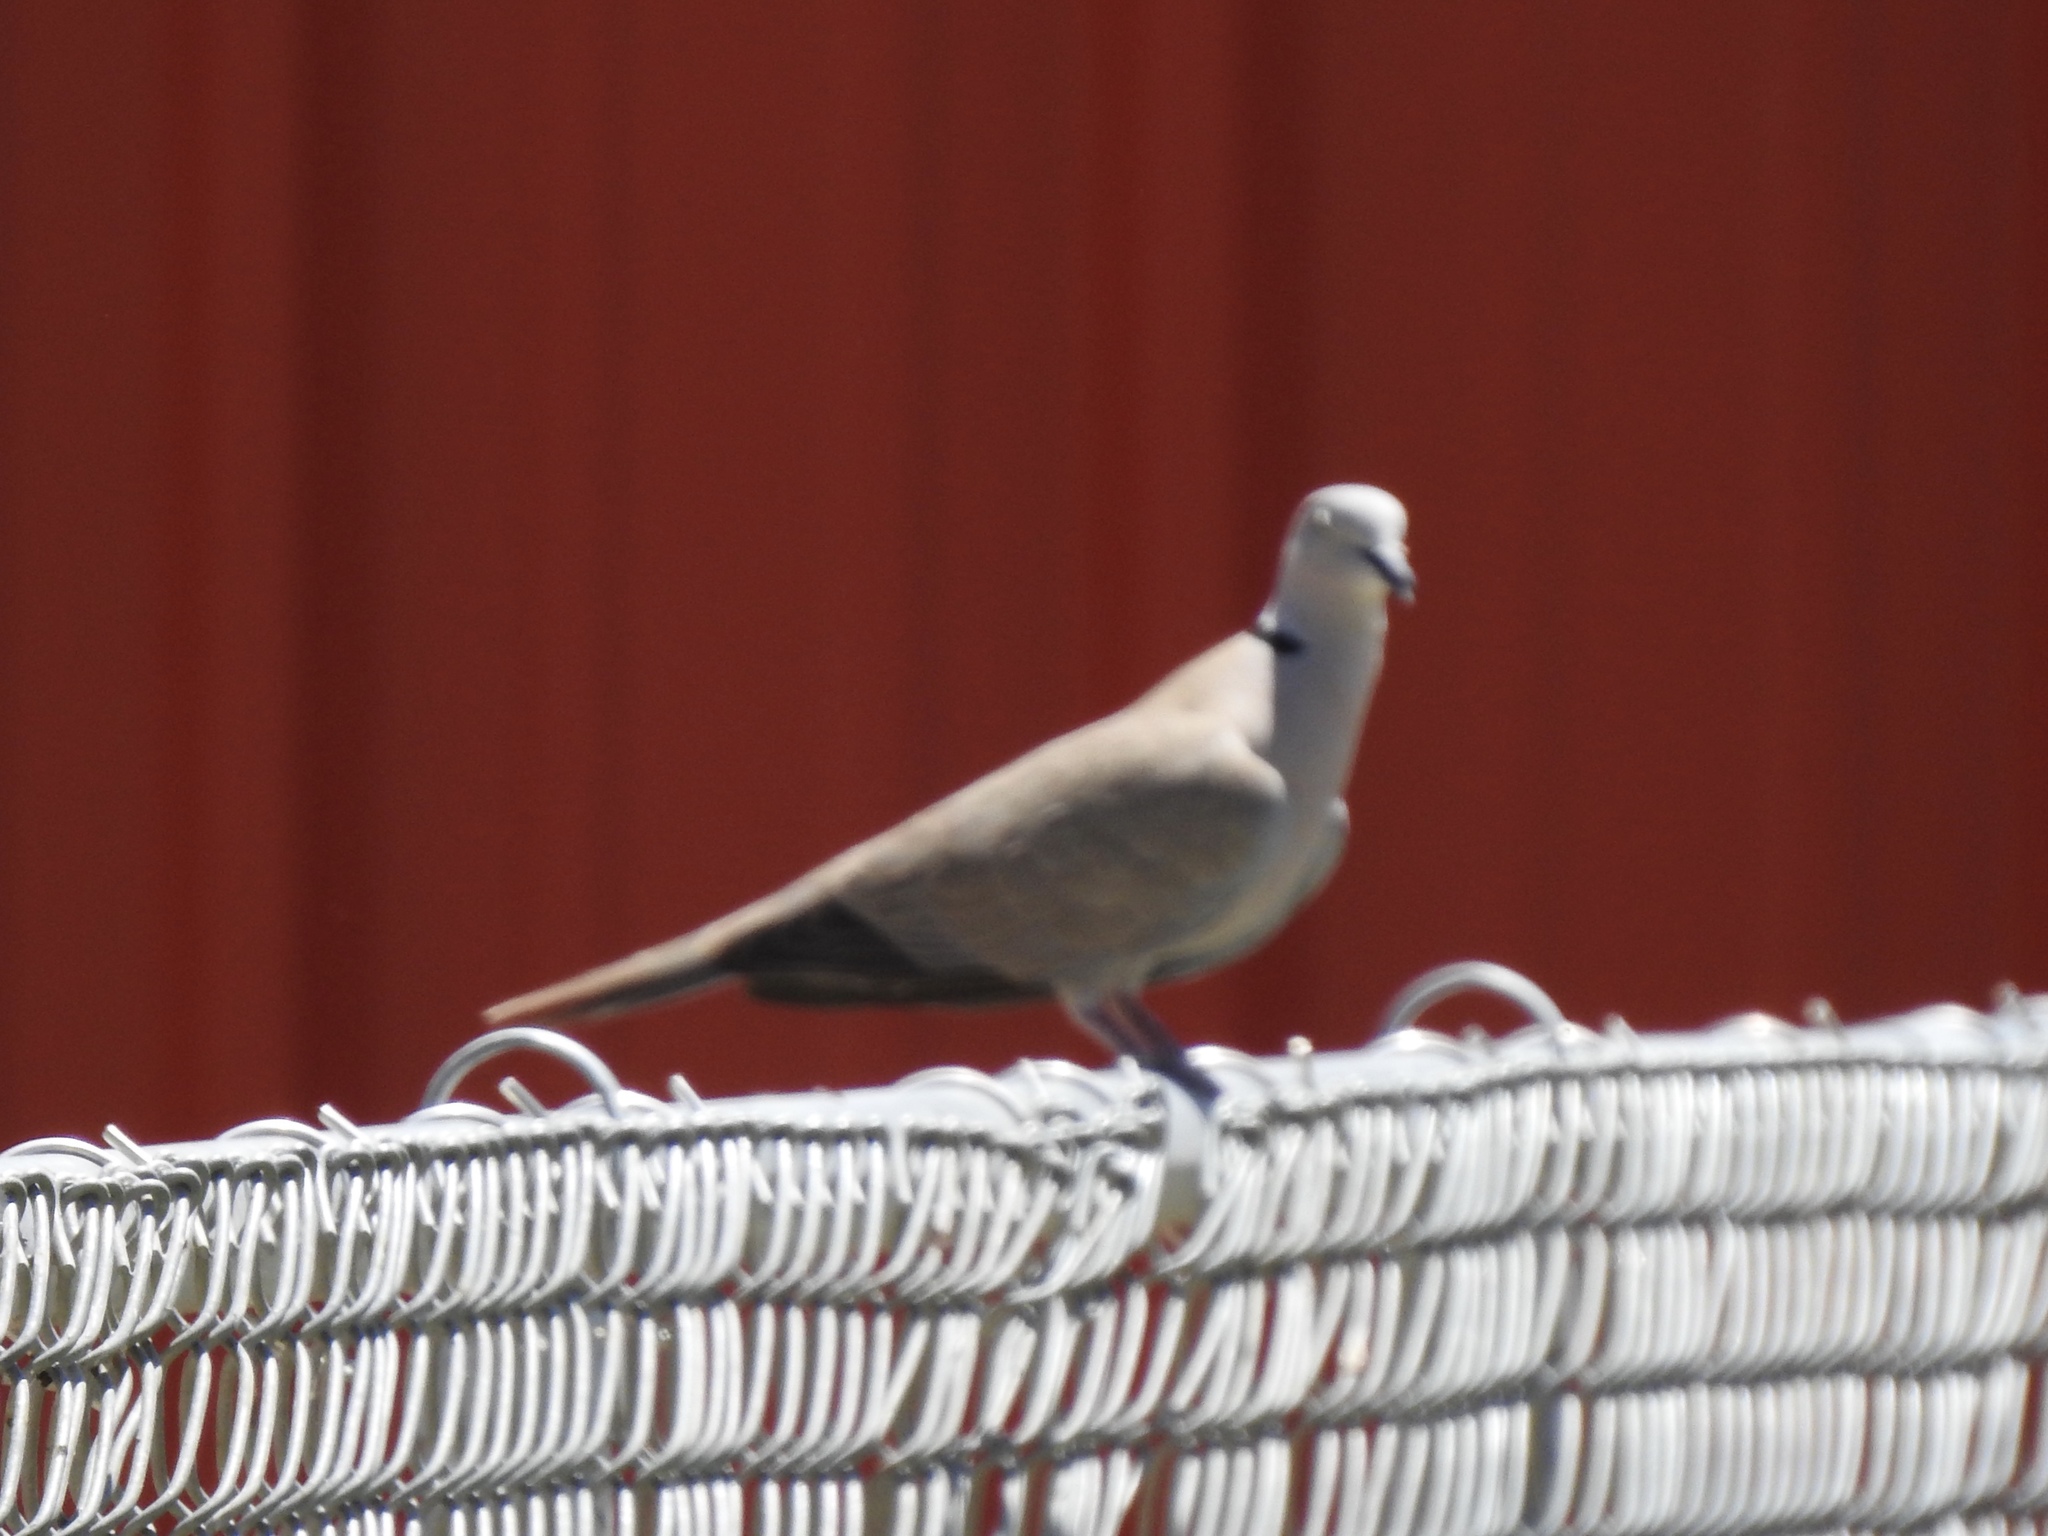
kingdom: Animalia
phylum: Chordata
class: Aves
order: Columbiformes
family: Columbidae
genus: Streptopelia
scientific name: Streptopelia decaocto
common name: Eurasian collared dove
